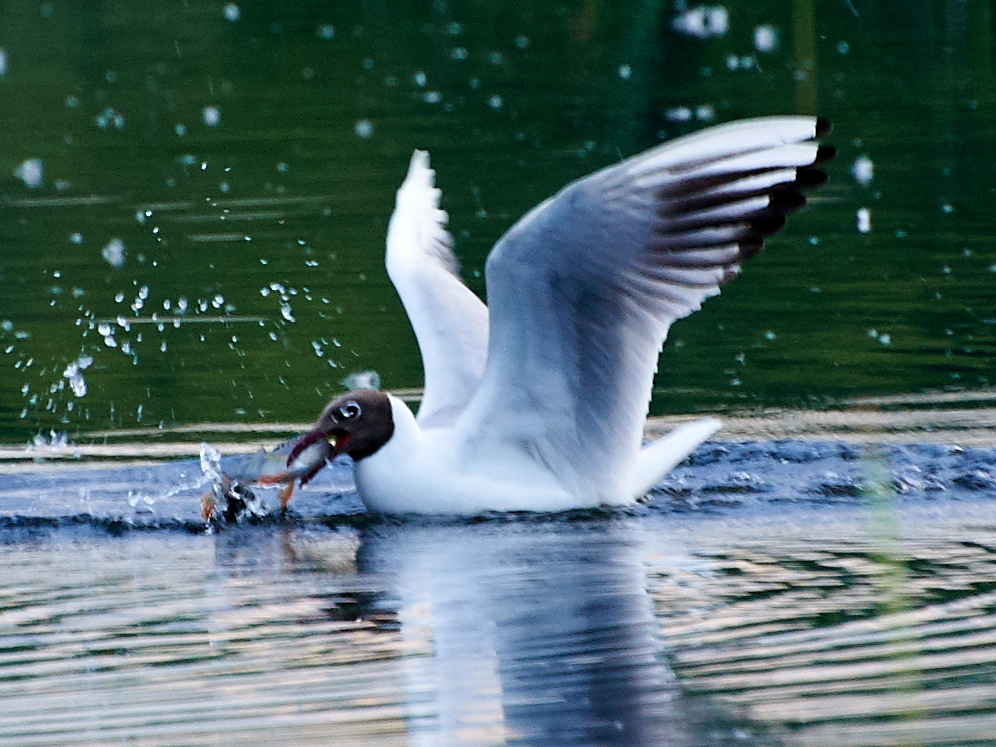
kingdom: Animalia
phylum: Chordata
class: Aves
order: Charadriiformes
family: Laridae
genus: Chroicocephalus
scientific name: Chroicocephalus ridibundus
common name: Black-headed gull
